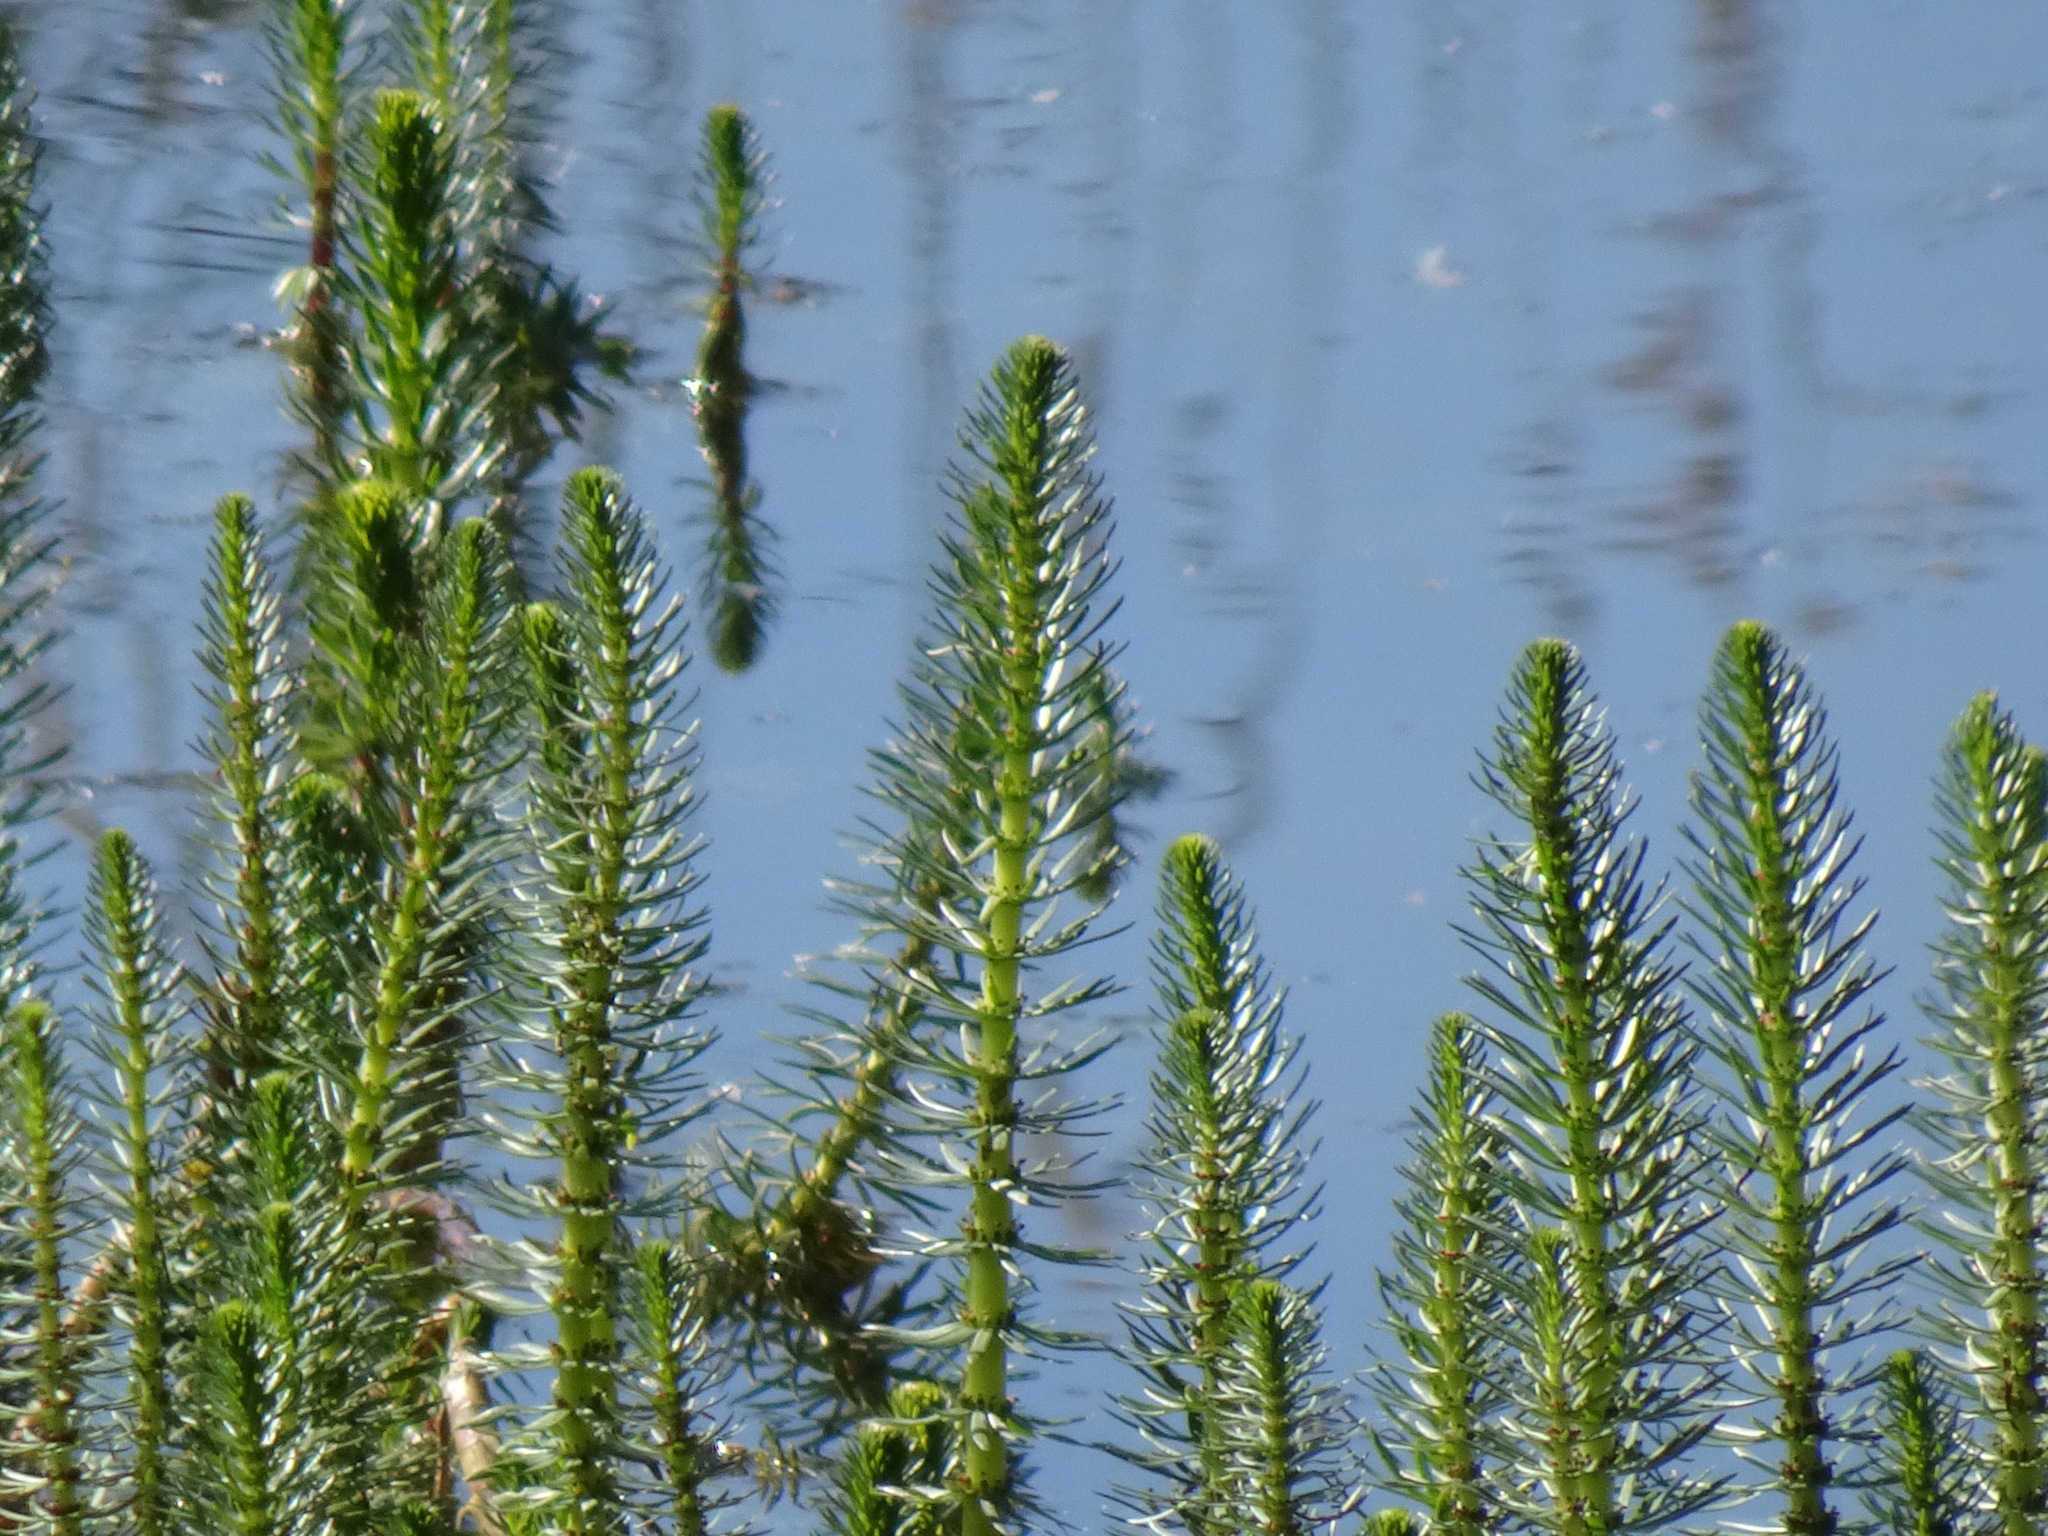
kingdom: Plantae
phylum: Tracheophyta
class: Magnoliopsida
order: Lamiales
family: Plantaginaceae
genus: Hippuris
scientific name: Hippuris vulgaris
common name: Mare's-tail
